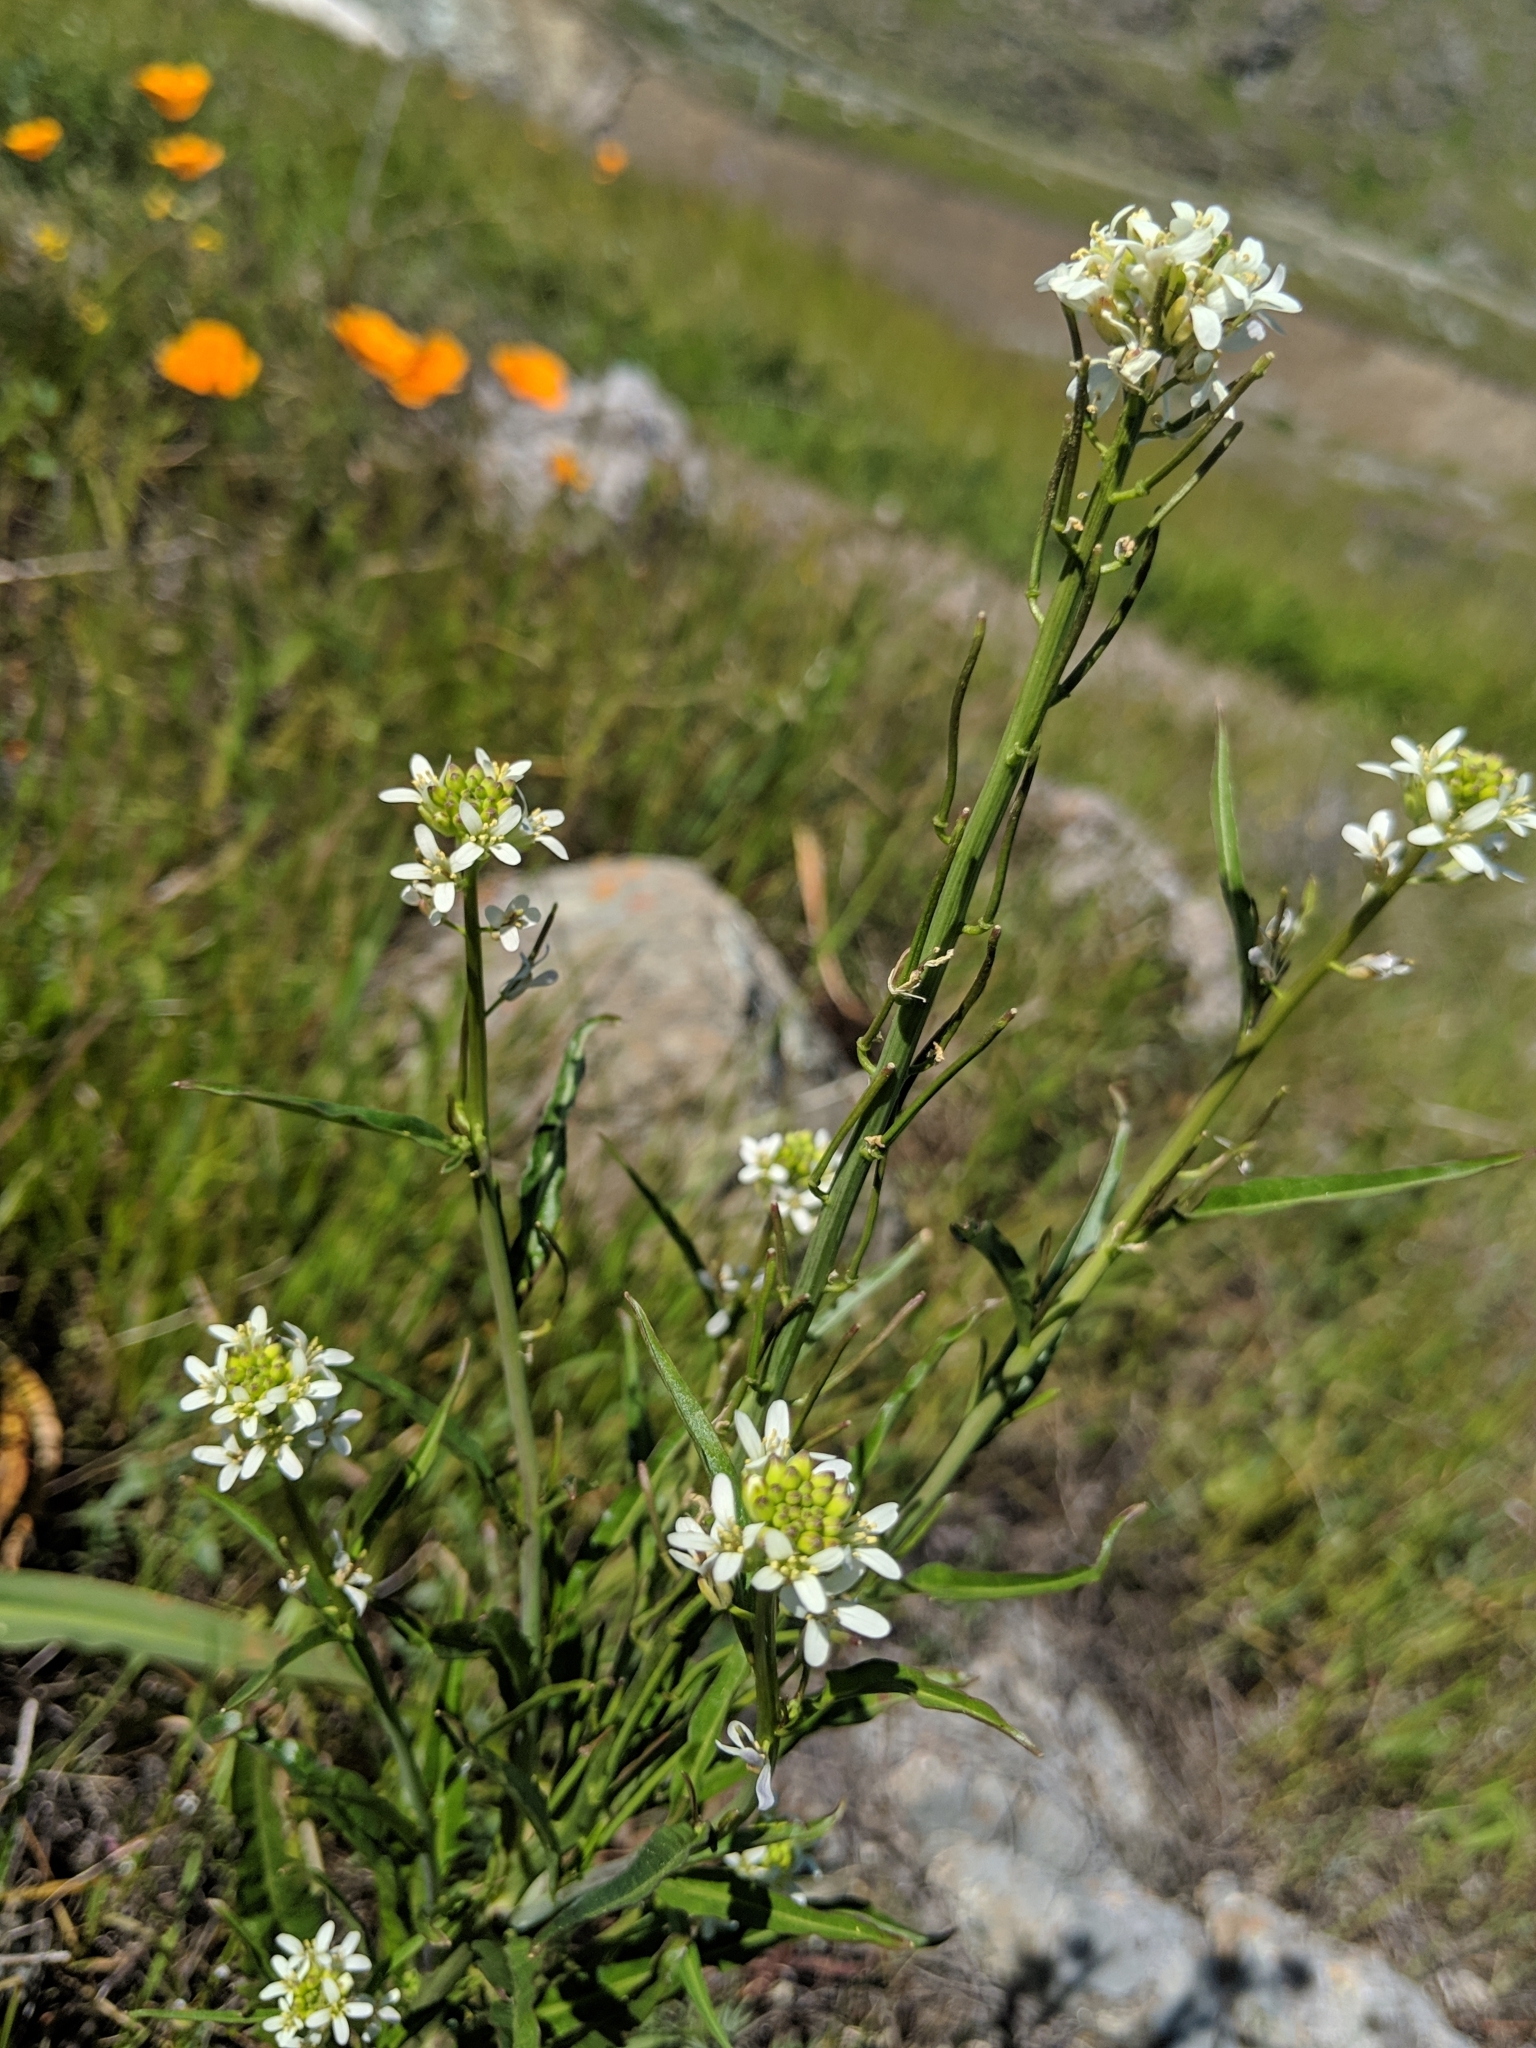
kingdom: Plantae
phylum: Tracheophyta
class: Magnoliopsida
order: Brassicales
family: Brassicaceae
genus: Streptanthus
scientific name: Streptanthus lasiophyllus
